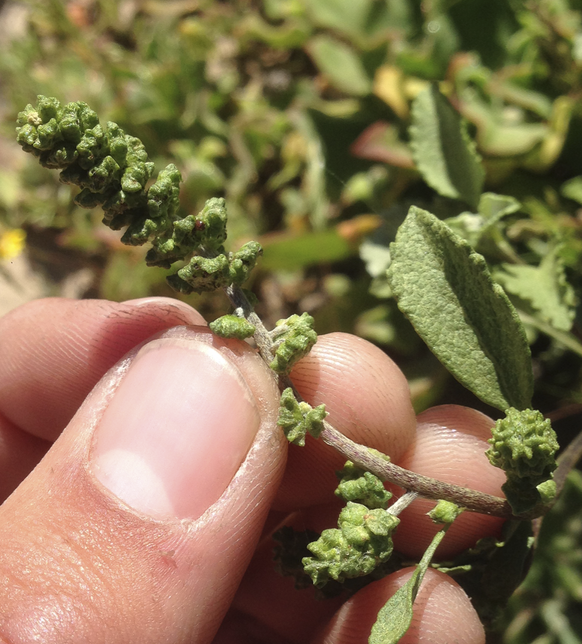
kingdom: Plantae
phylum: Tracheophyta
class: Magnoliopsida
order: Asterales
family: Asteraceae
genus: Ambrosia
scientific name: Ambrosia chenopodiifolia
